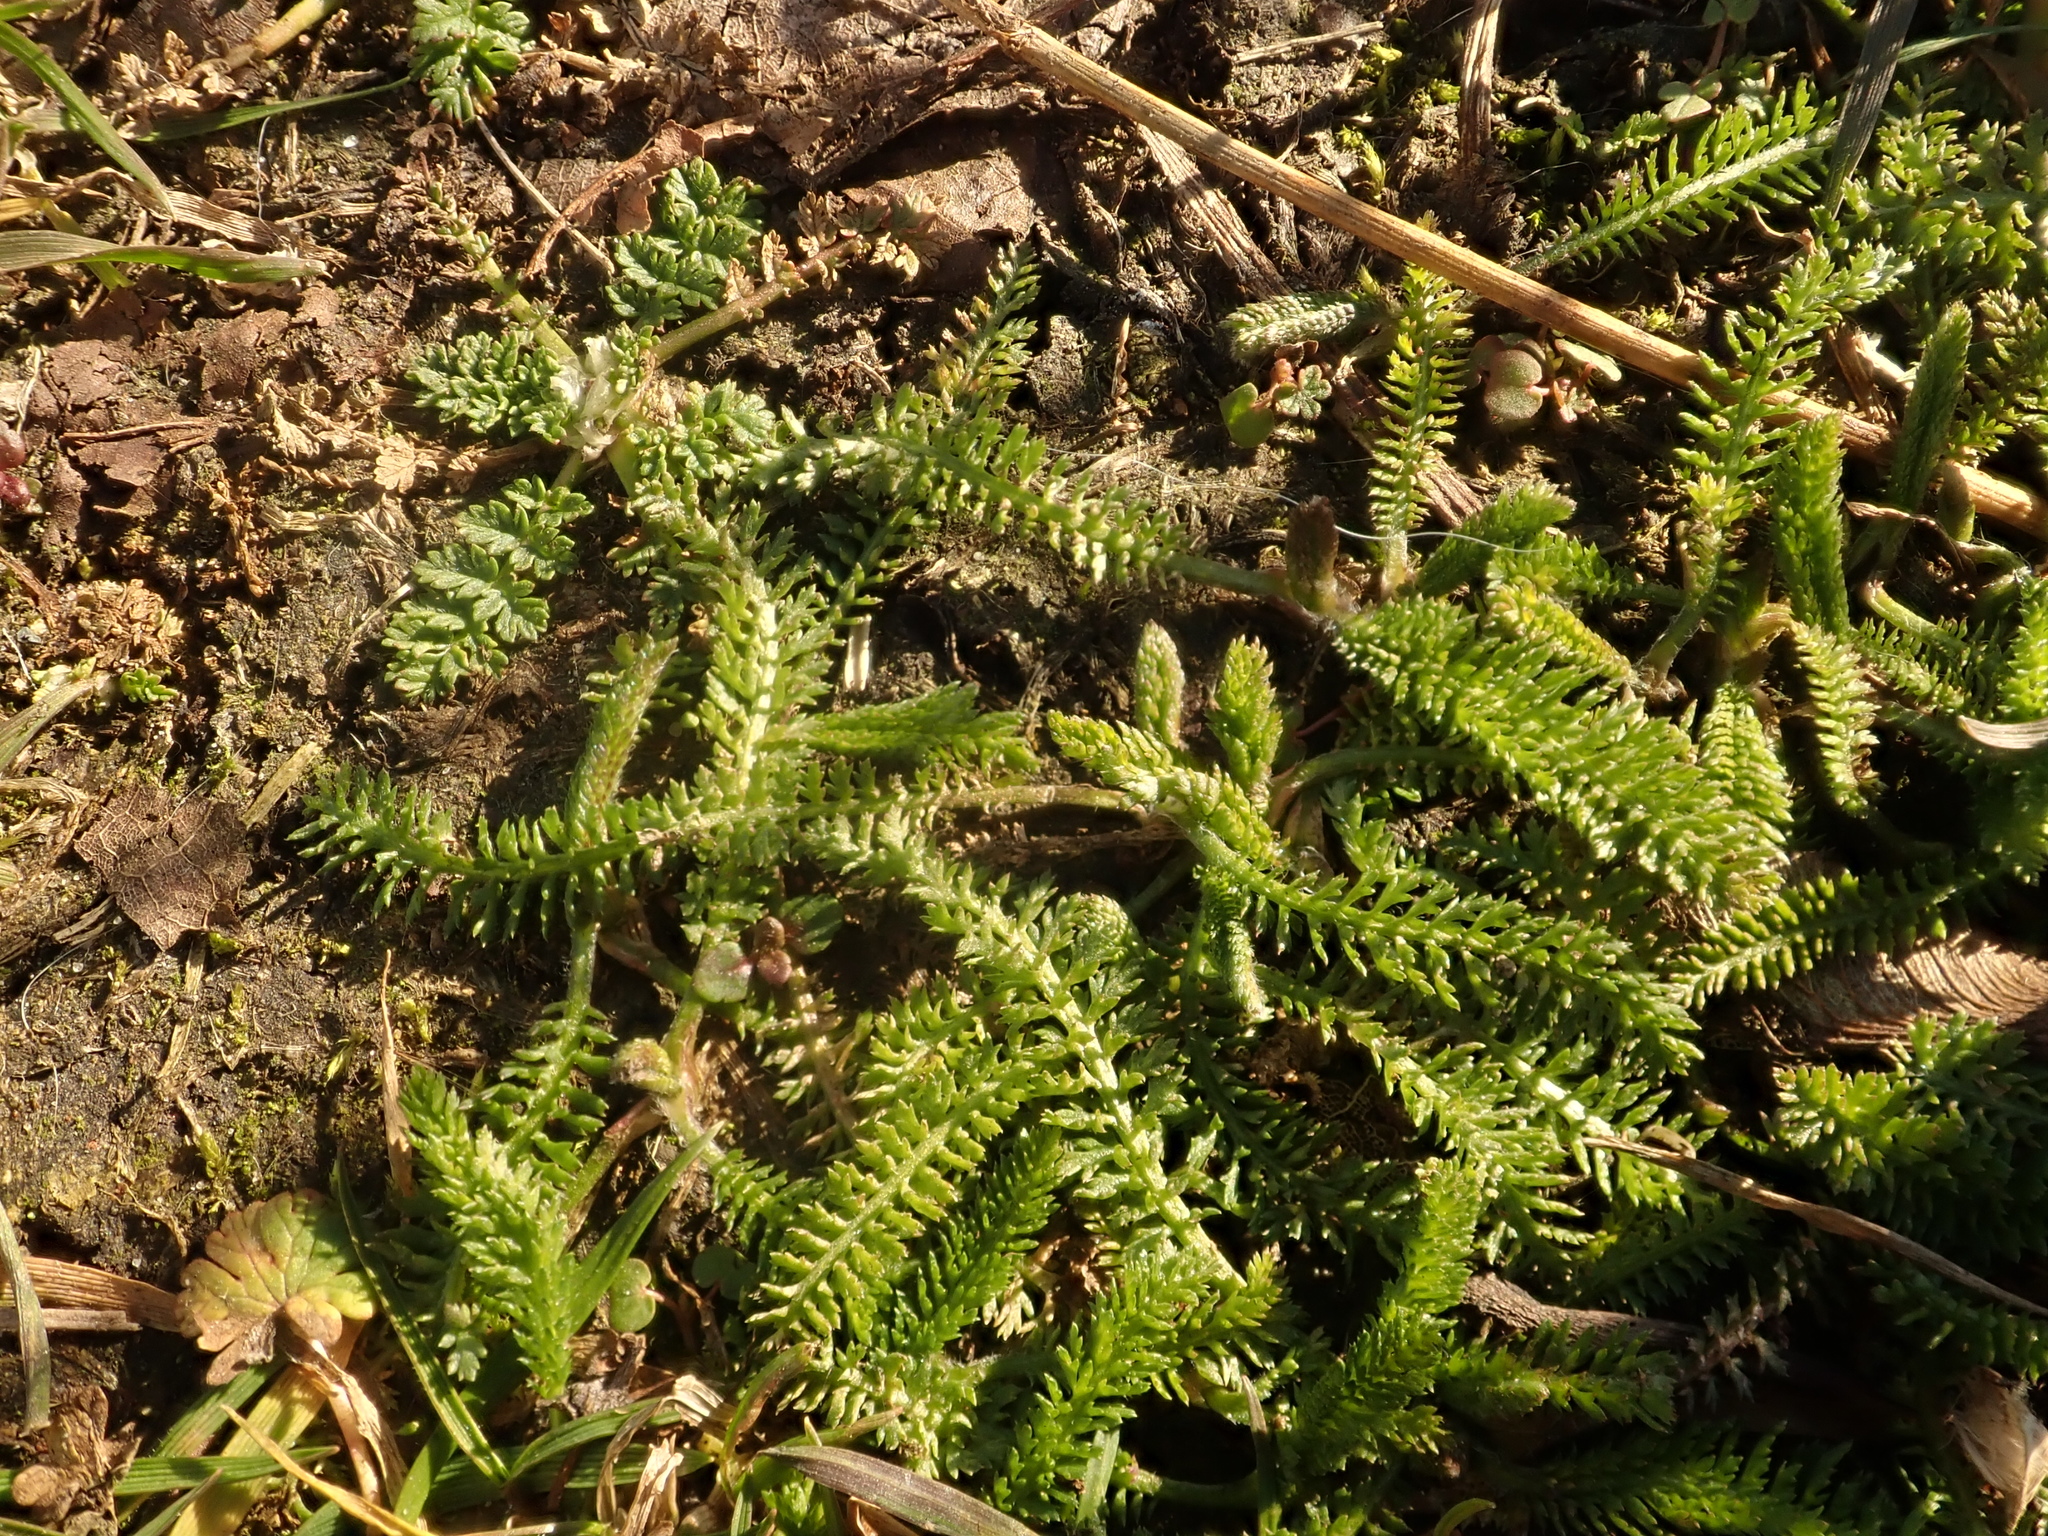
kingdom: Plantae
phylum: Tracheophyta
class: Magnoliopsida
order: Asterales
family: Asteraceae
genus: Achillea
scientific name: Achillea millefolium
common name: Yarrow
